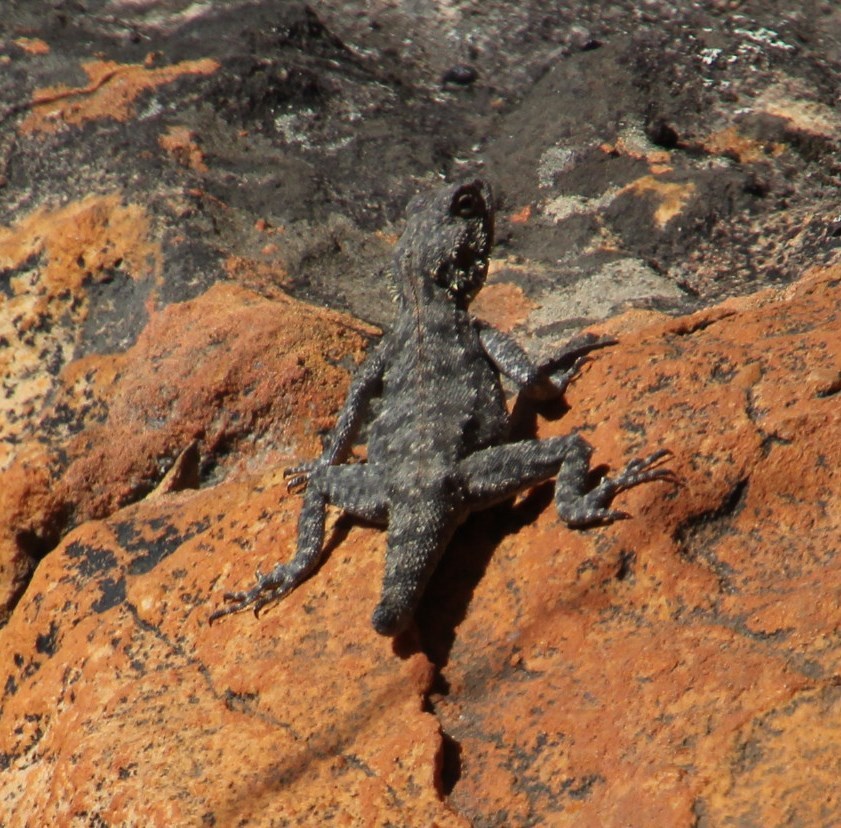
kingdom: Animalia
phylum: Chordata
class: Squamata
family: Agamidae
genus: Agama
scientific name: Agama atra
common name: Southern african rock agama
